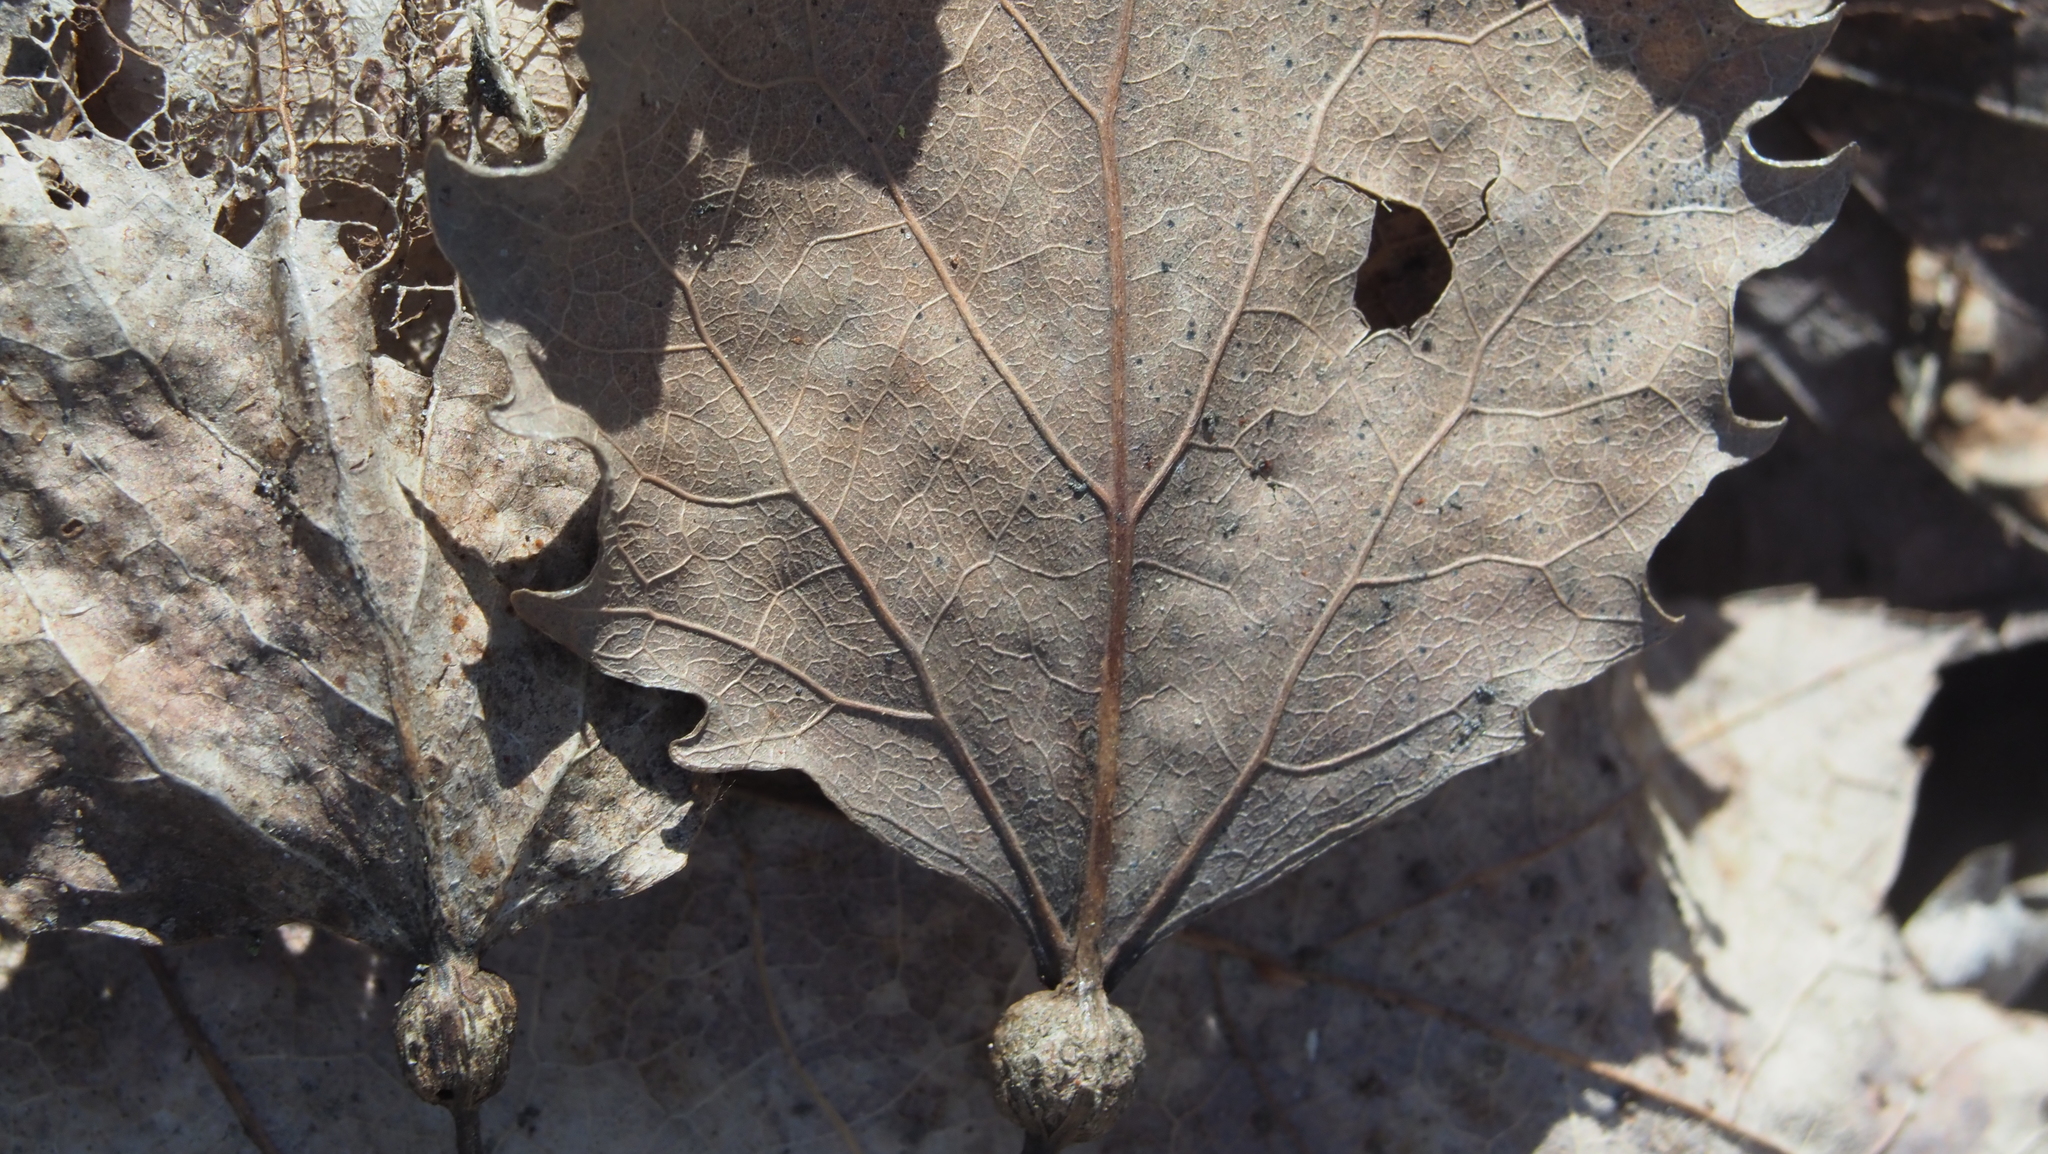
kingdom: Animalia
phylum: Arthropoda
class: Insecta
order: Lepidoptera
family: Nepticulidae
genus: Ectoedemia
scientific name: Ectoedemia populella
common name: Aspen petiole gall moth
